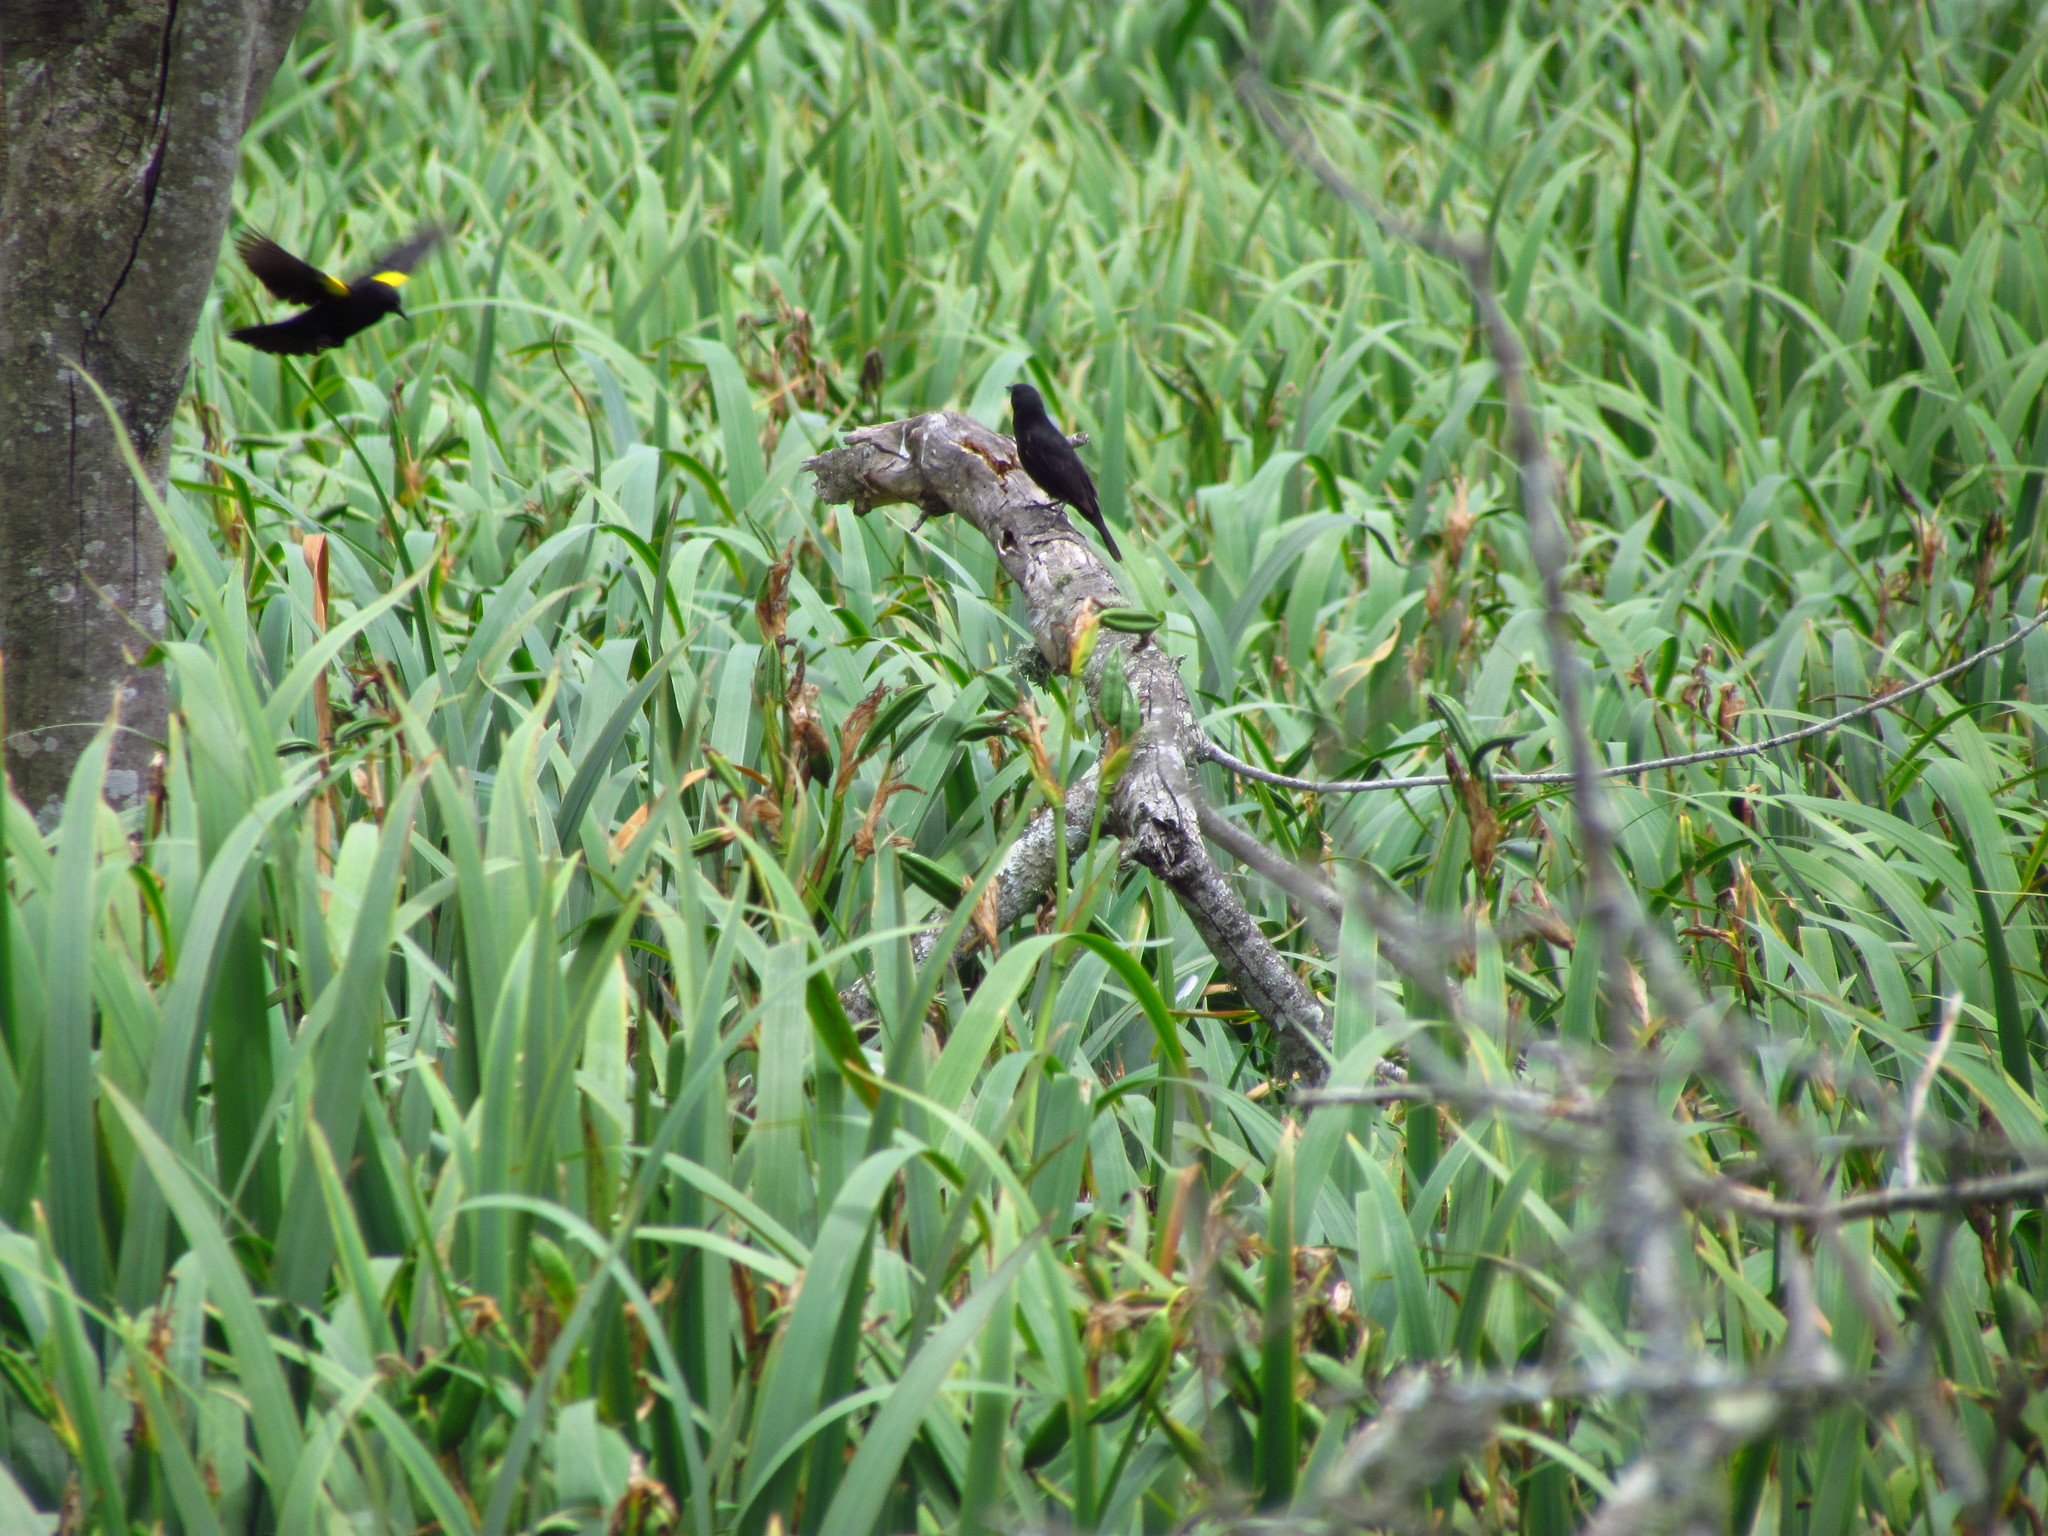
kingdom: Animalia
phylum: Chordata
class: Aves
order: Passeriformes
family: Icteridae
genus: Agelasticus
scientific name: Agelasticus thilius
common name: Yellow-winged blackbird
